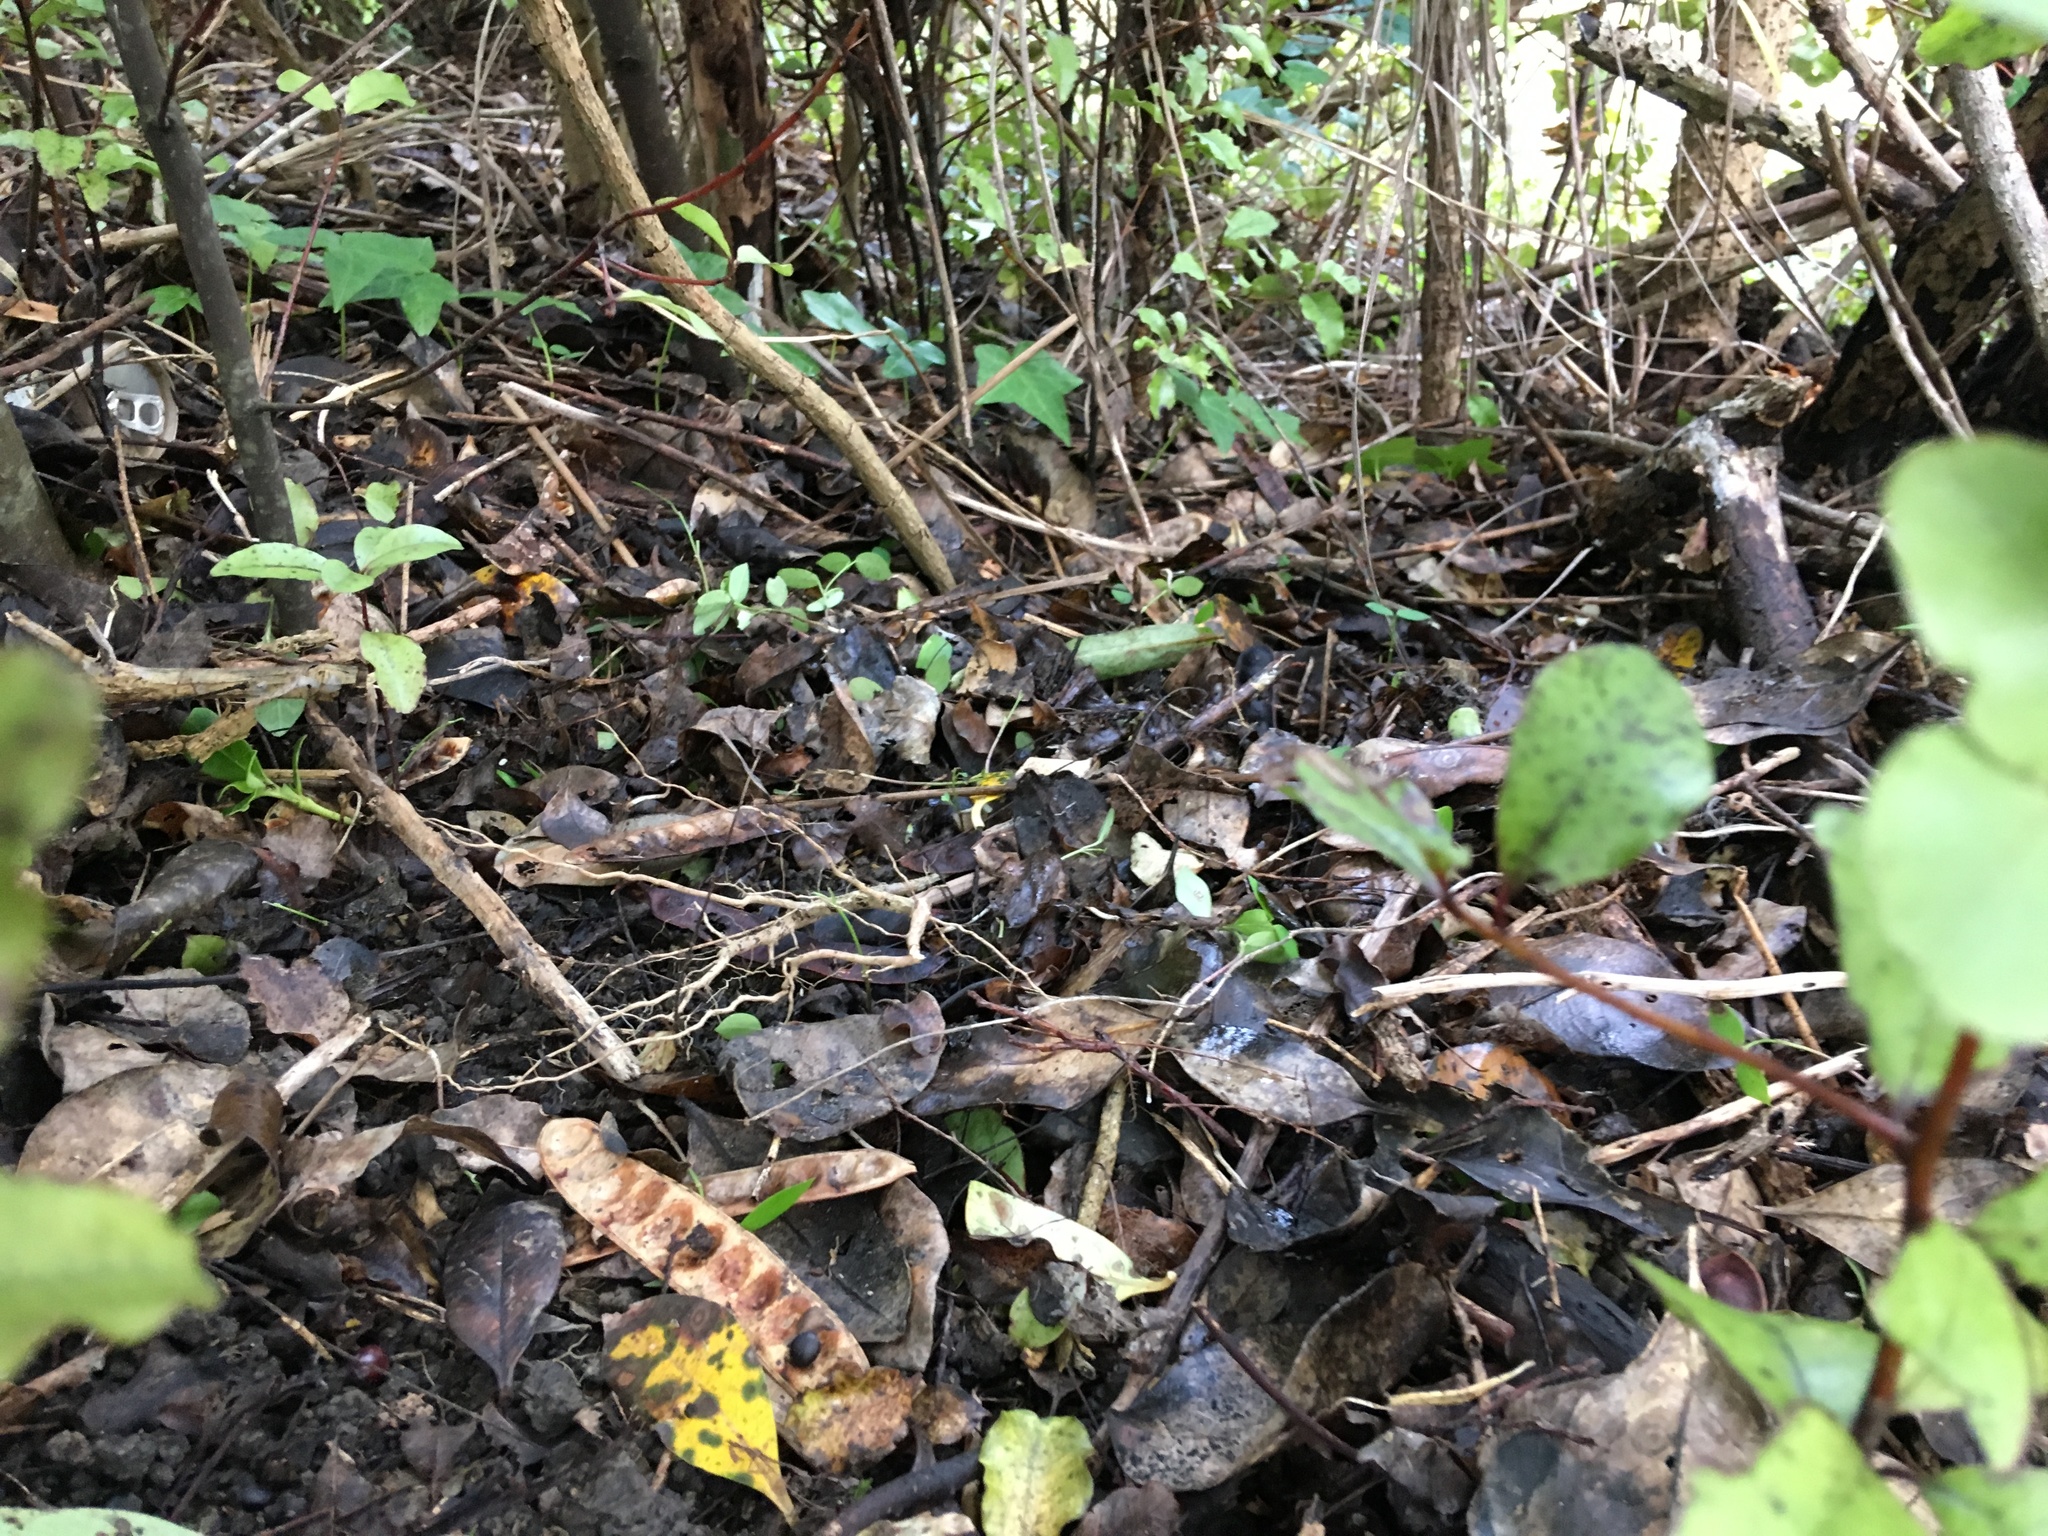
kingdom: Plantae
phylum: Tracheophyta
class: Magnoliopsida
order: Apiales
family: Araliaceae
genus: Hedera
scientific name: Hedera helix
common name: Ivy
